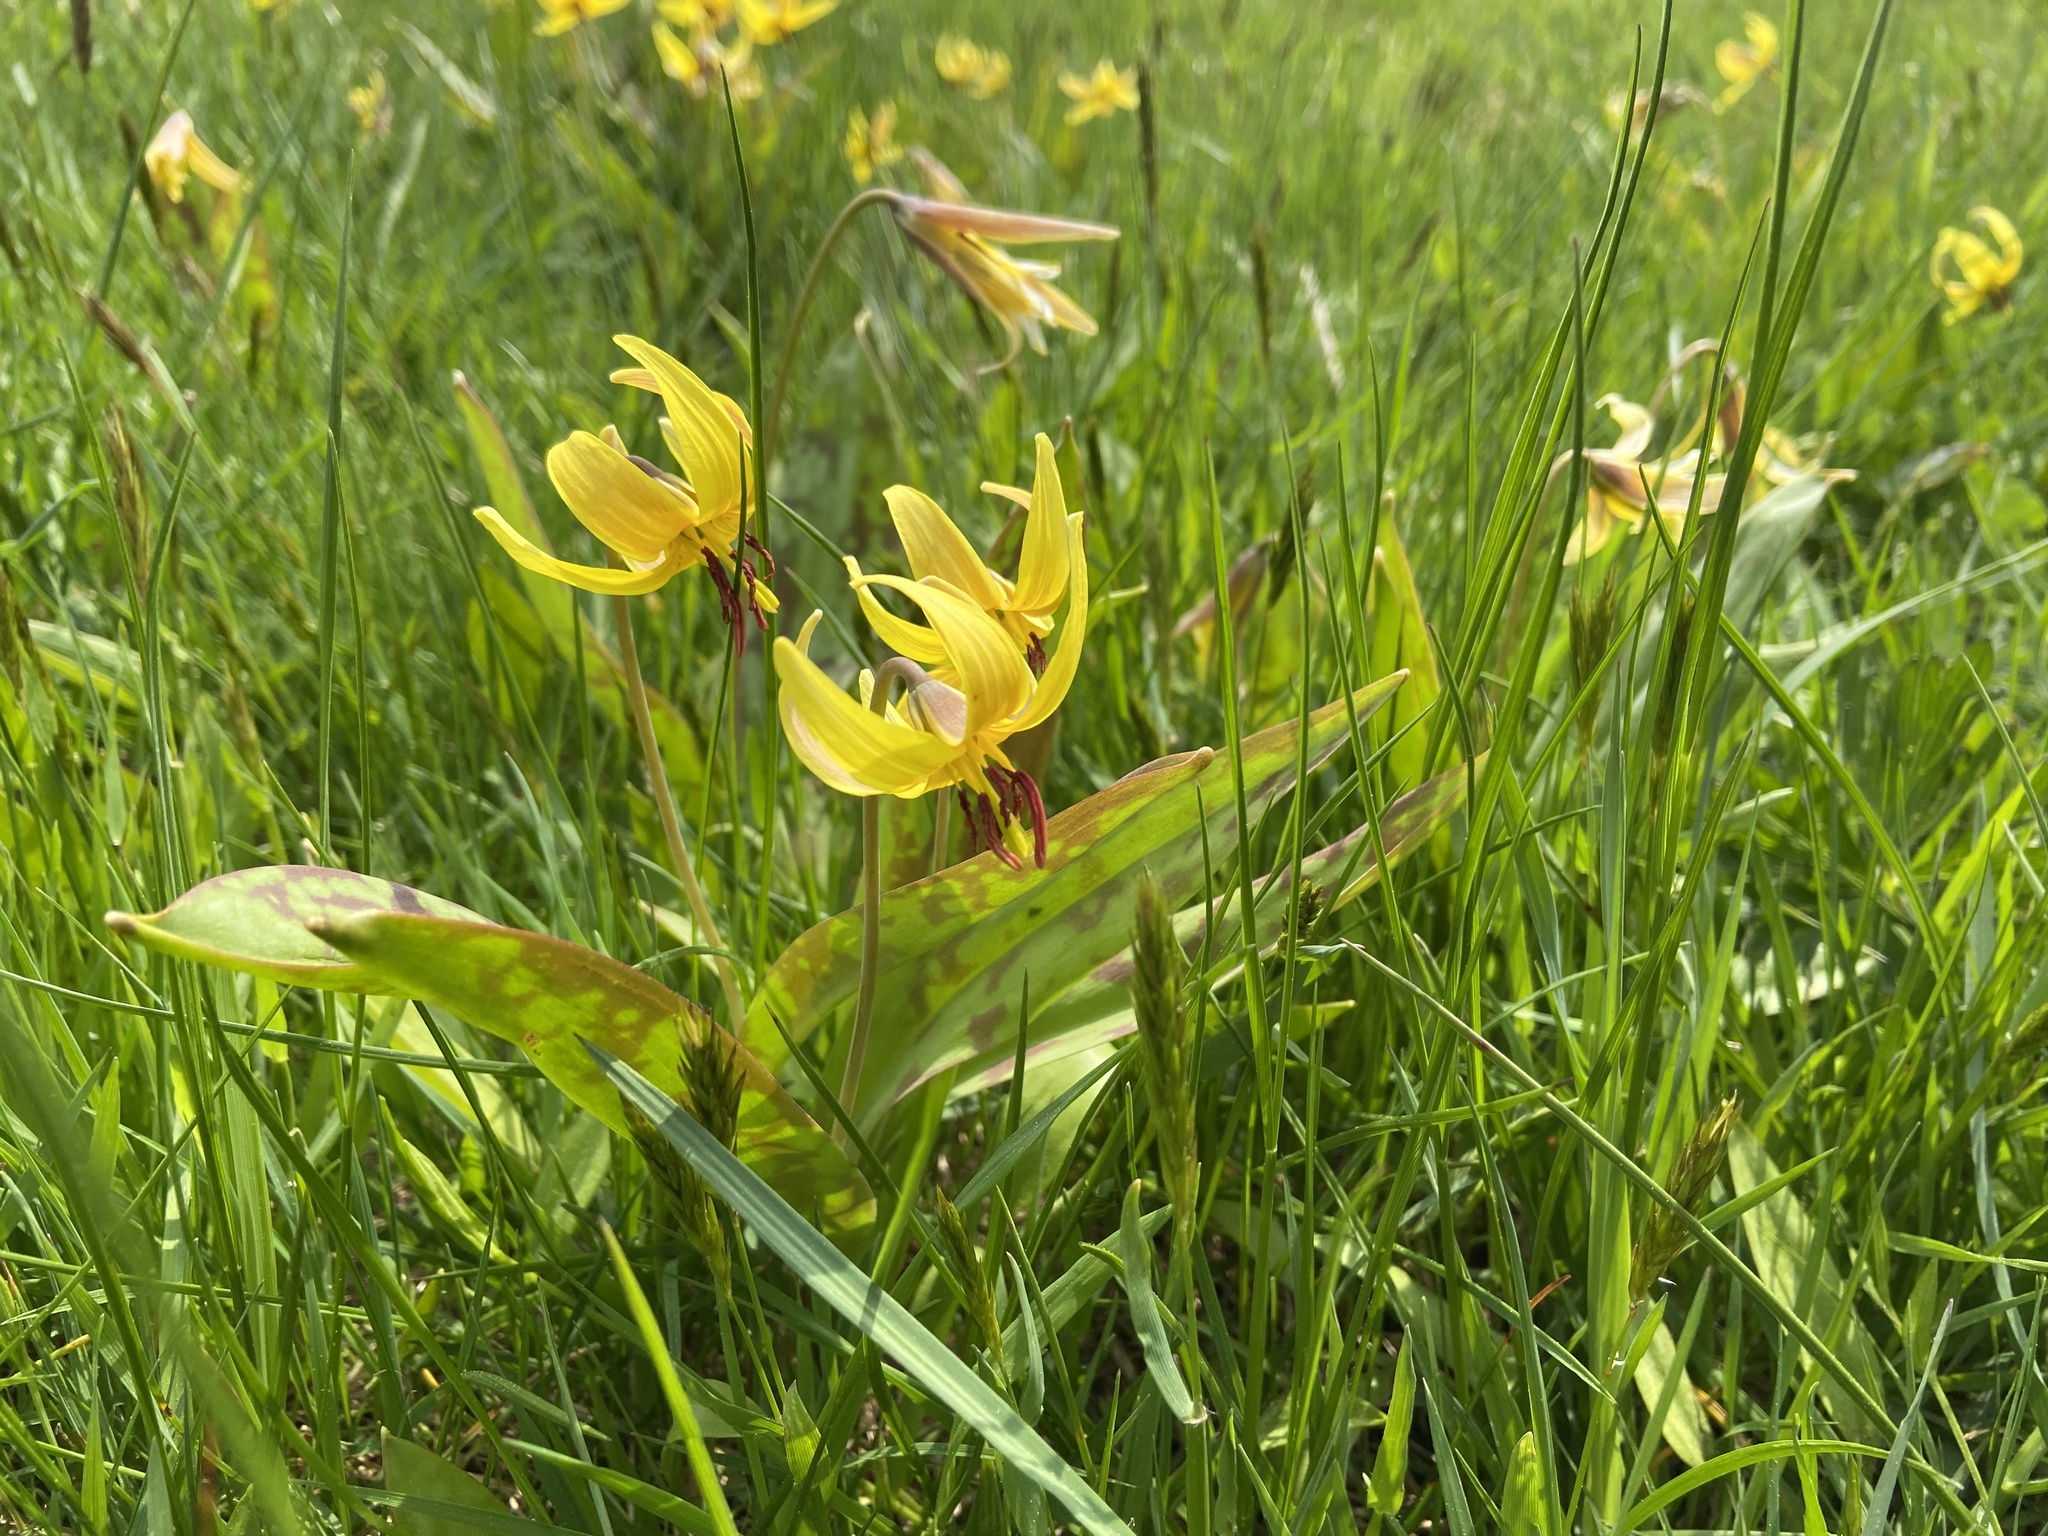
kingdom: Plantae
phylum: Tracheophyta
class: Liliopsida
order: Liliales
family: Liliaceae
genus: Erythronium
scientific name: Erythronium americanum
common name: Yellow adder's-tongue
